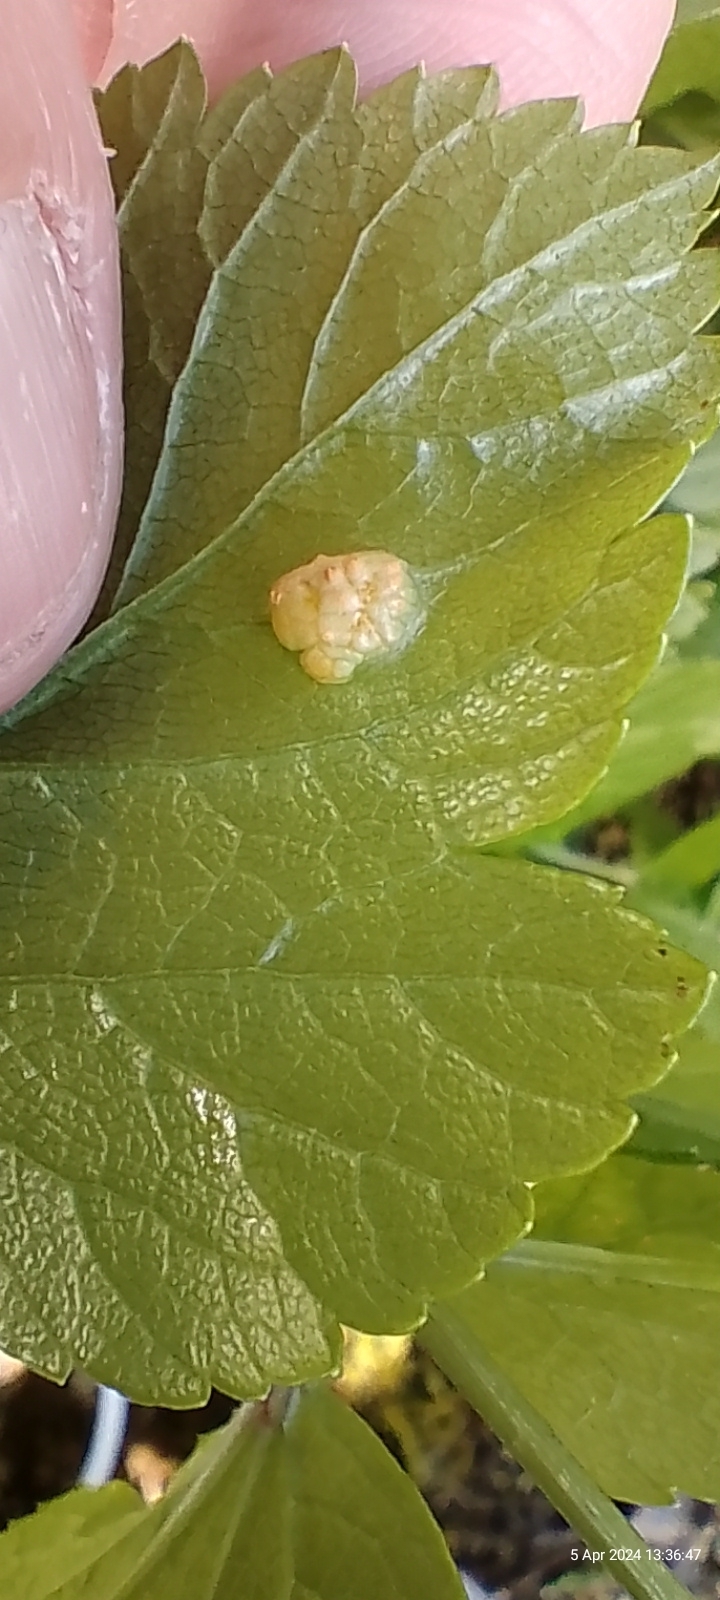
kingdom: Fungi
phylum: Basidiomycota
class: Pucciniomycetes
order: Pucciniales
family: Pucciniaceae
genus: Puccinia
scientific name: Puccinia smyrnii
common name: Alexanders rust
